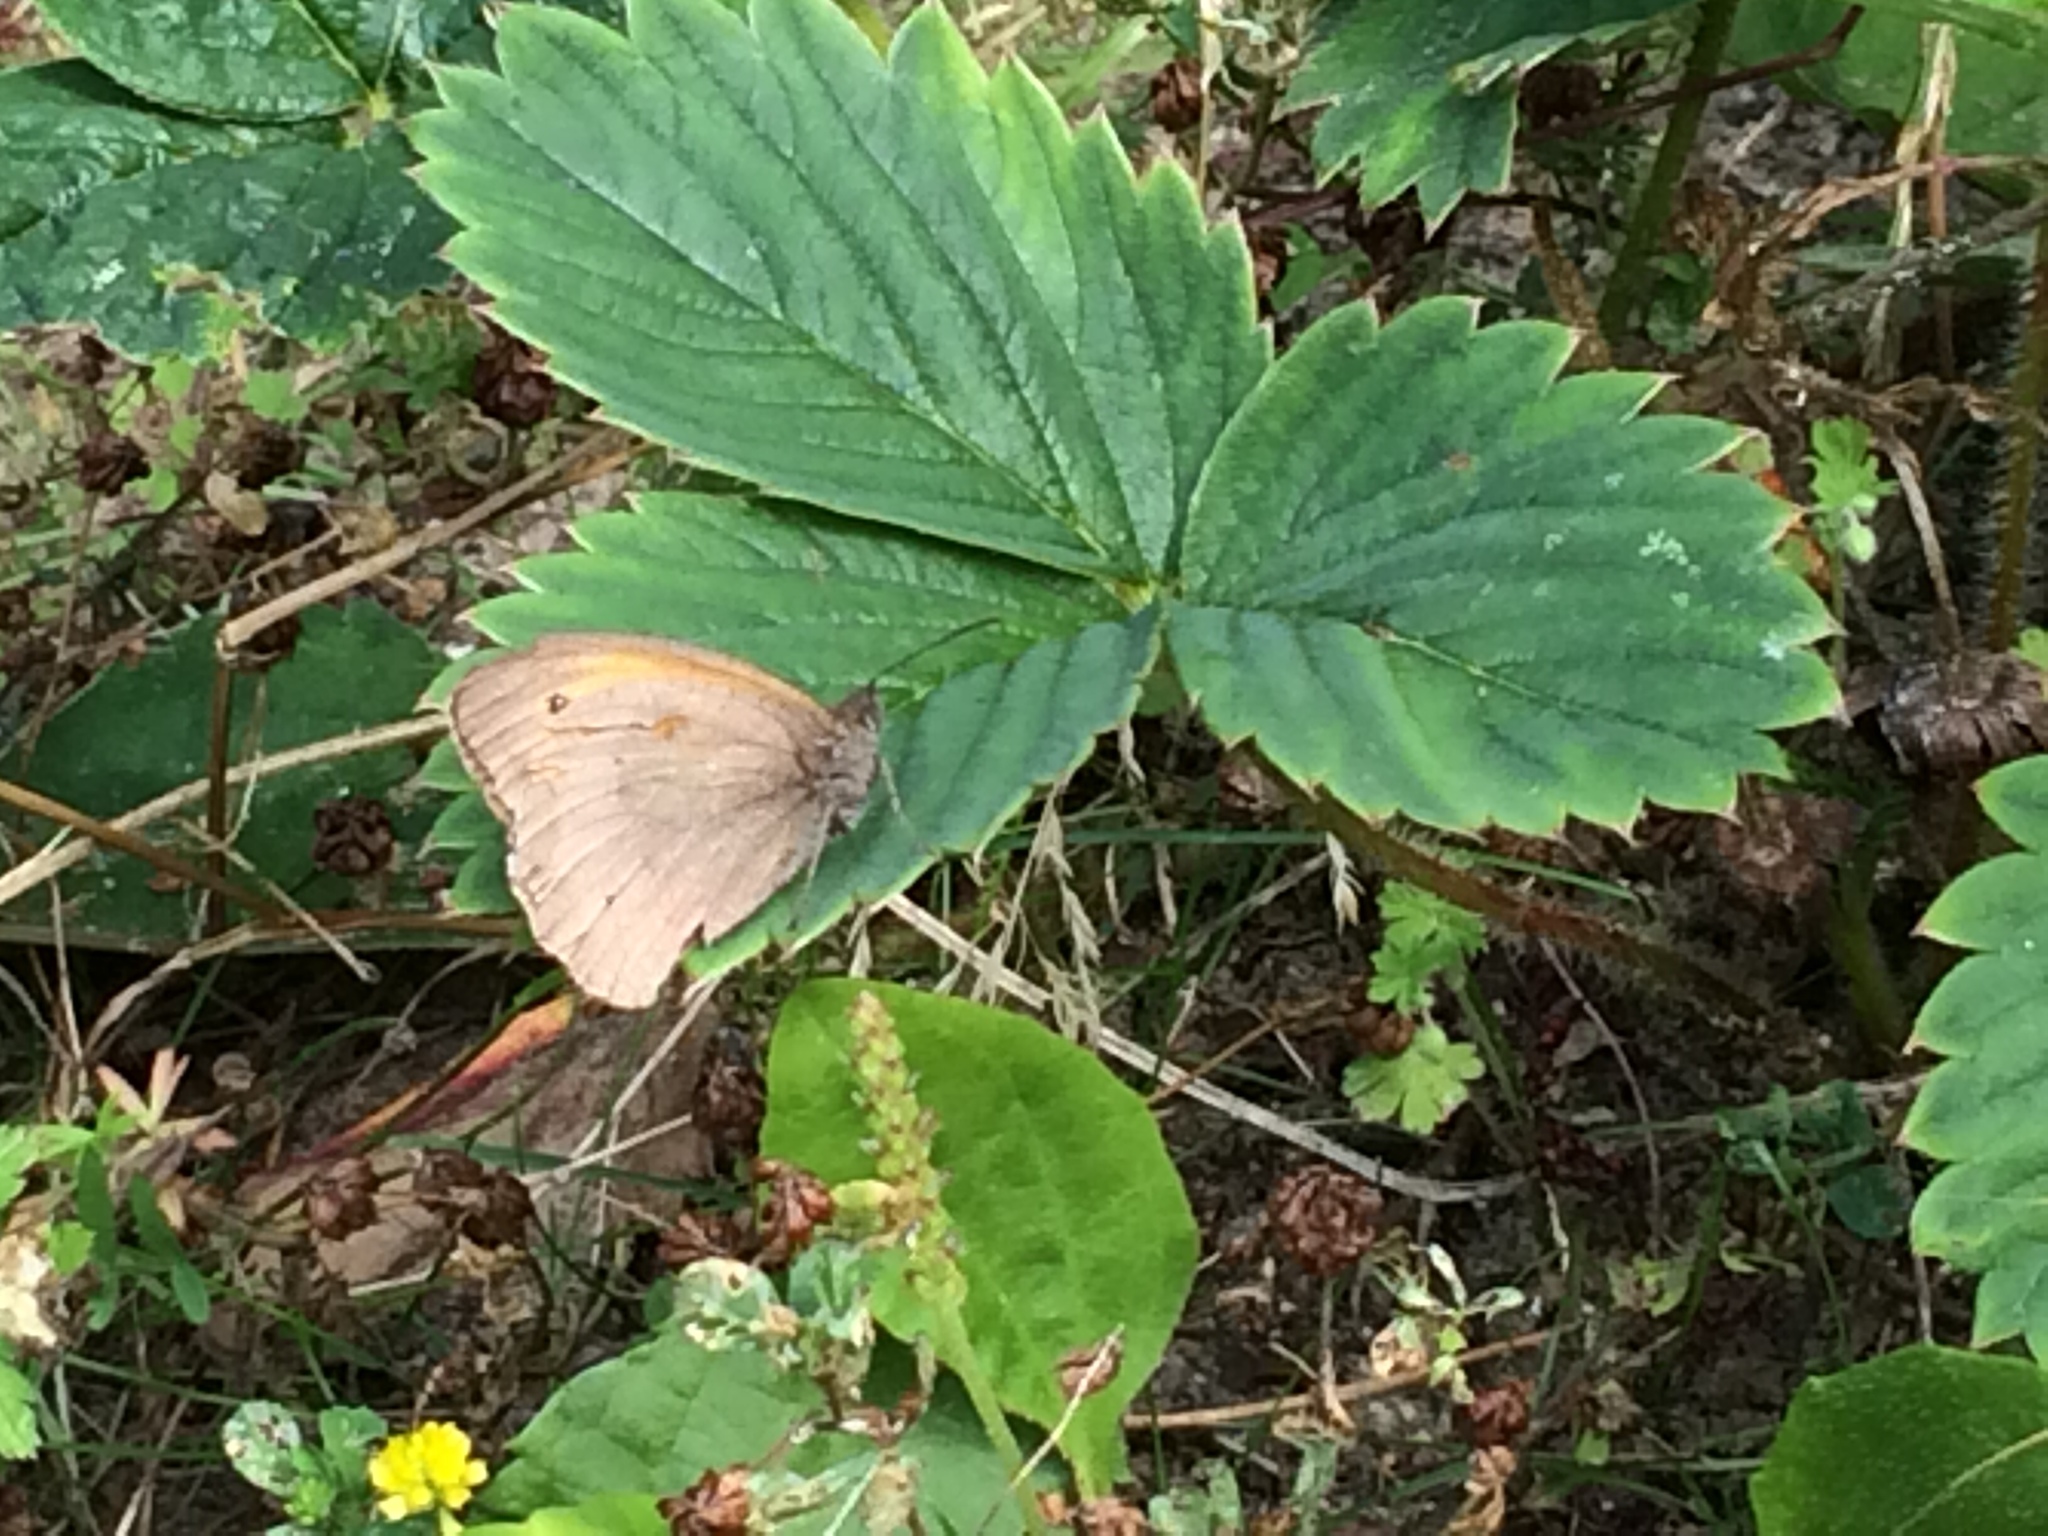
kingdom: Animalia
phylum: Arthropoda
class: Insecta
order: Lepidoptera
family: Nymphalidae
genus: Maniola
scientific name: Maniola jurtina
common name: Meadow brown
